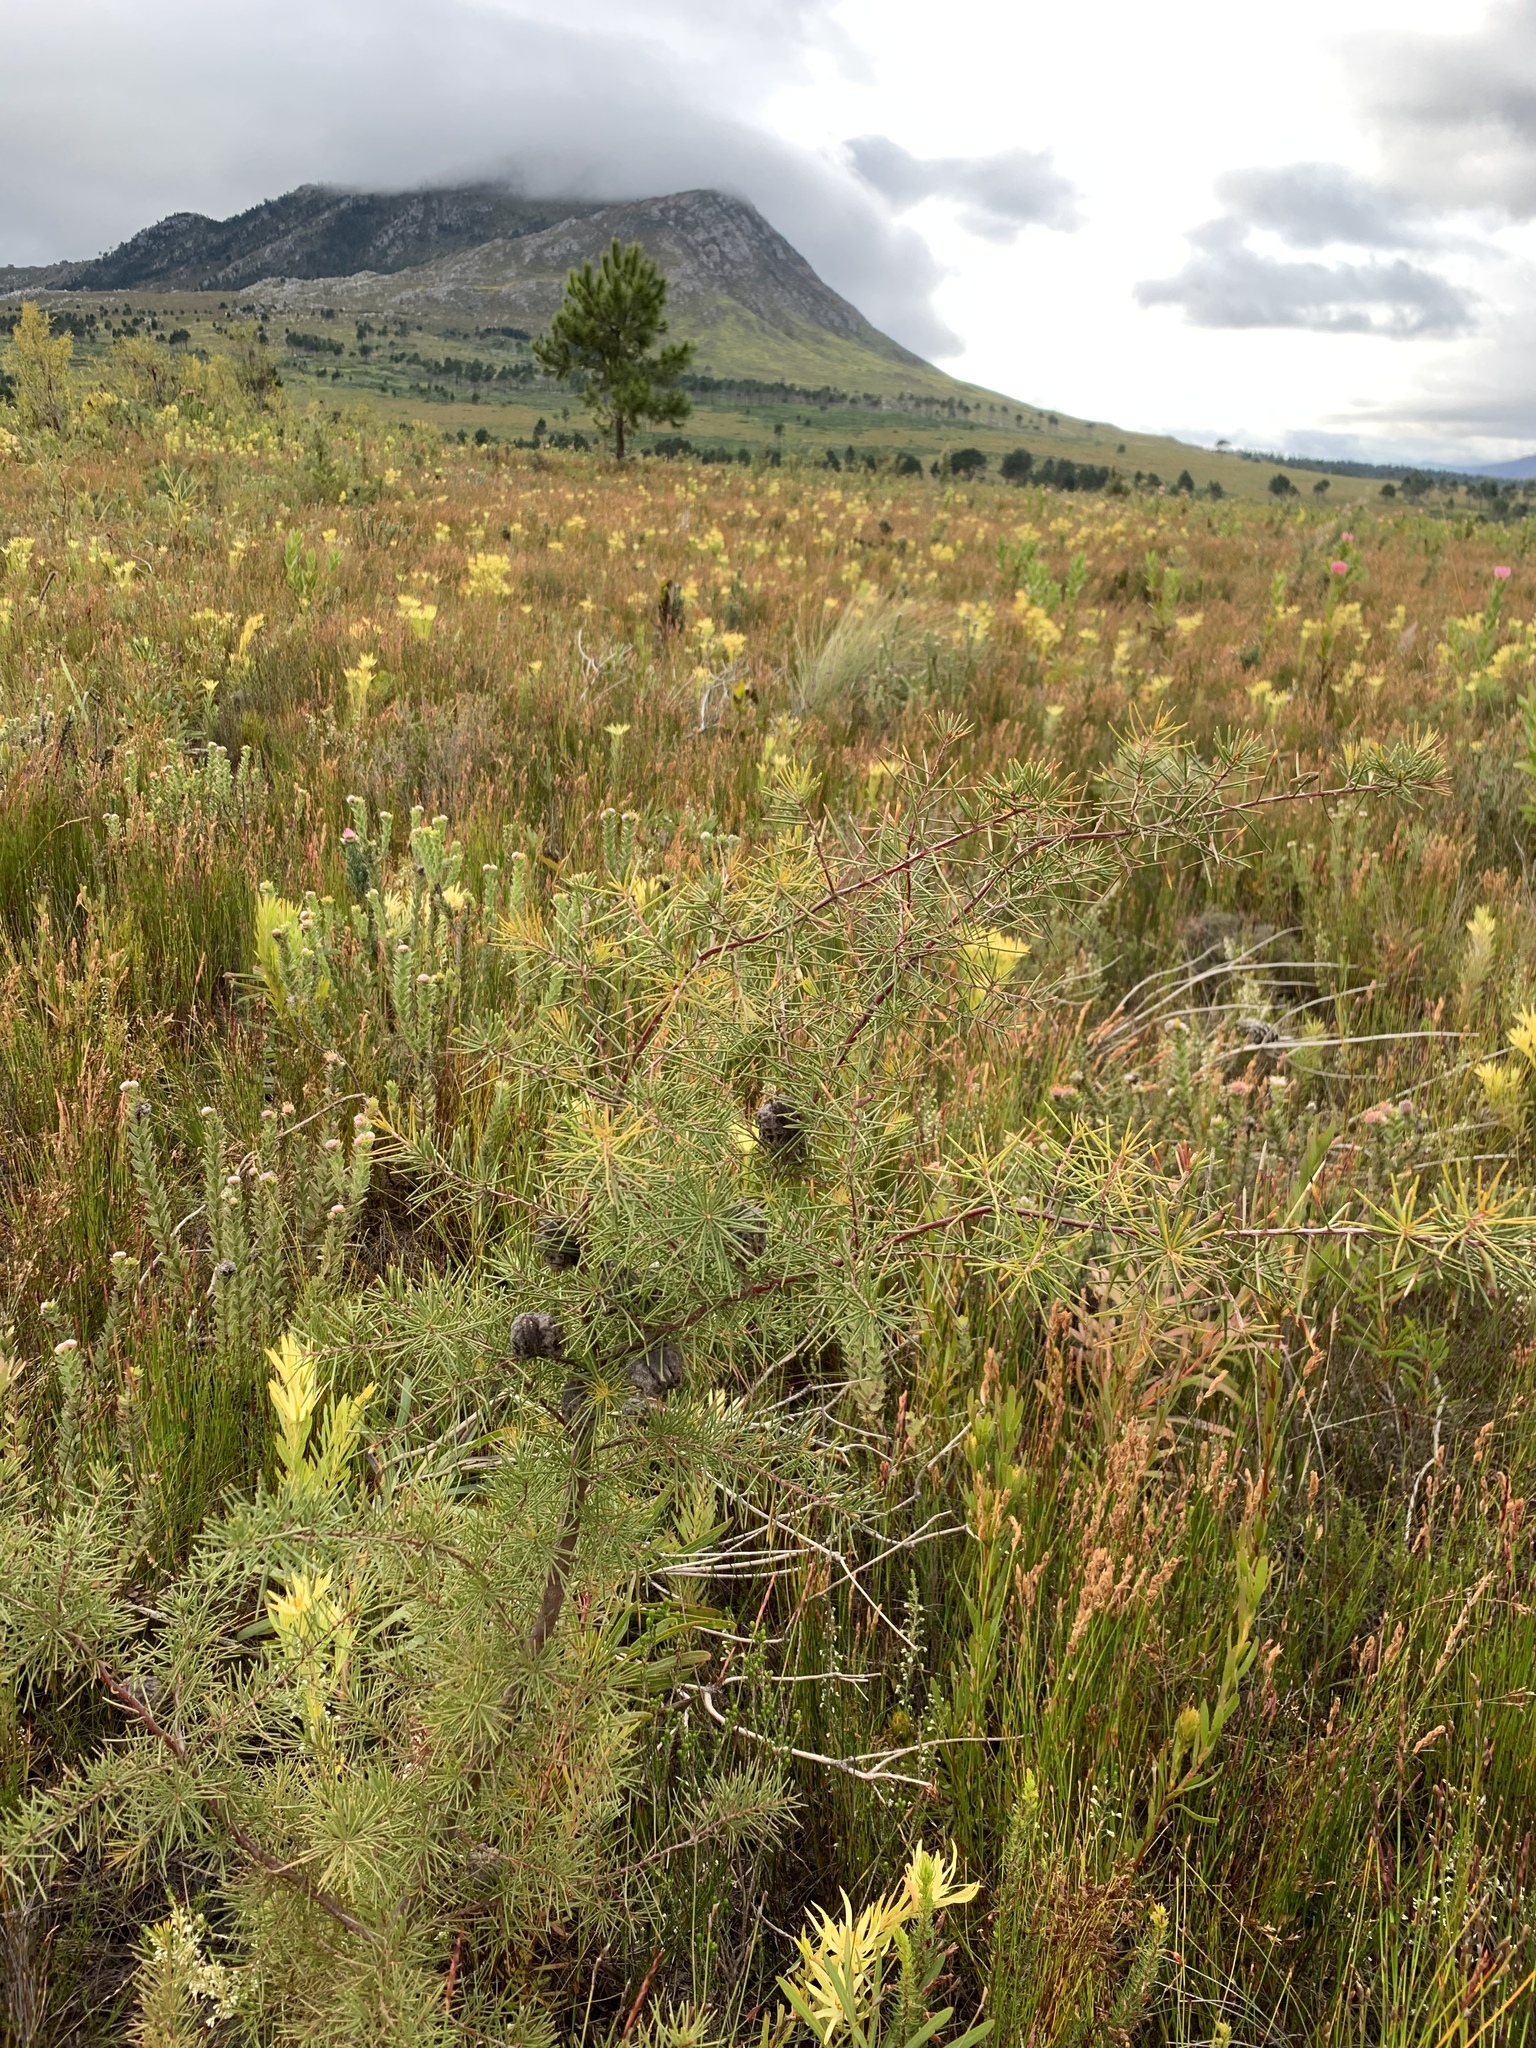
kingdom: Plantae
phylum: Tracheophyta
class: Magnoliopsida
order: Proteales
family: Proteaceae
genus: Hakea
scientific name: Hakea sericea
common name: Needle bush
